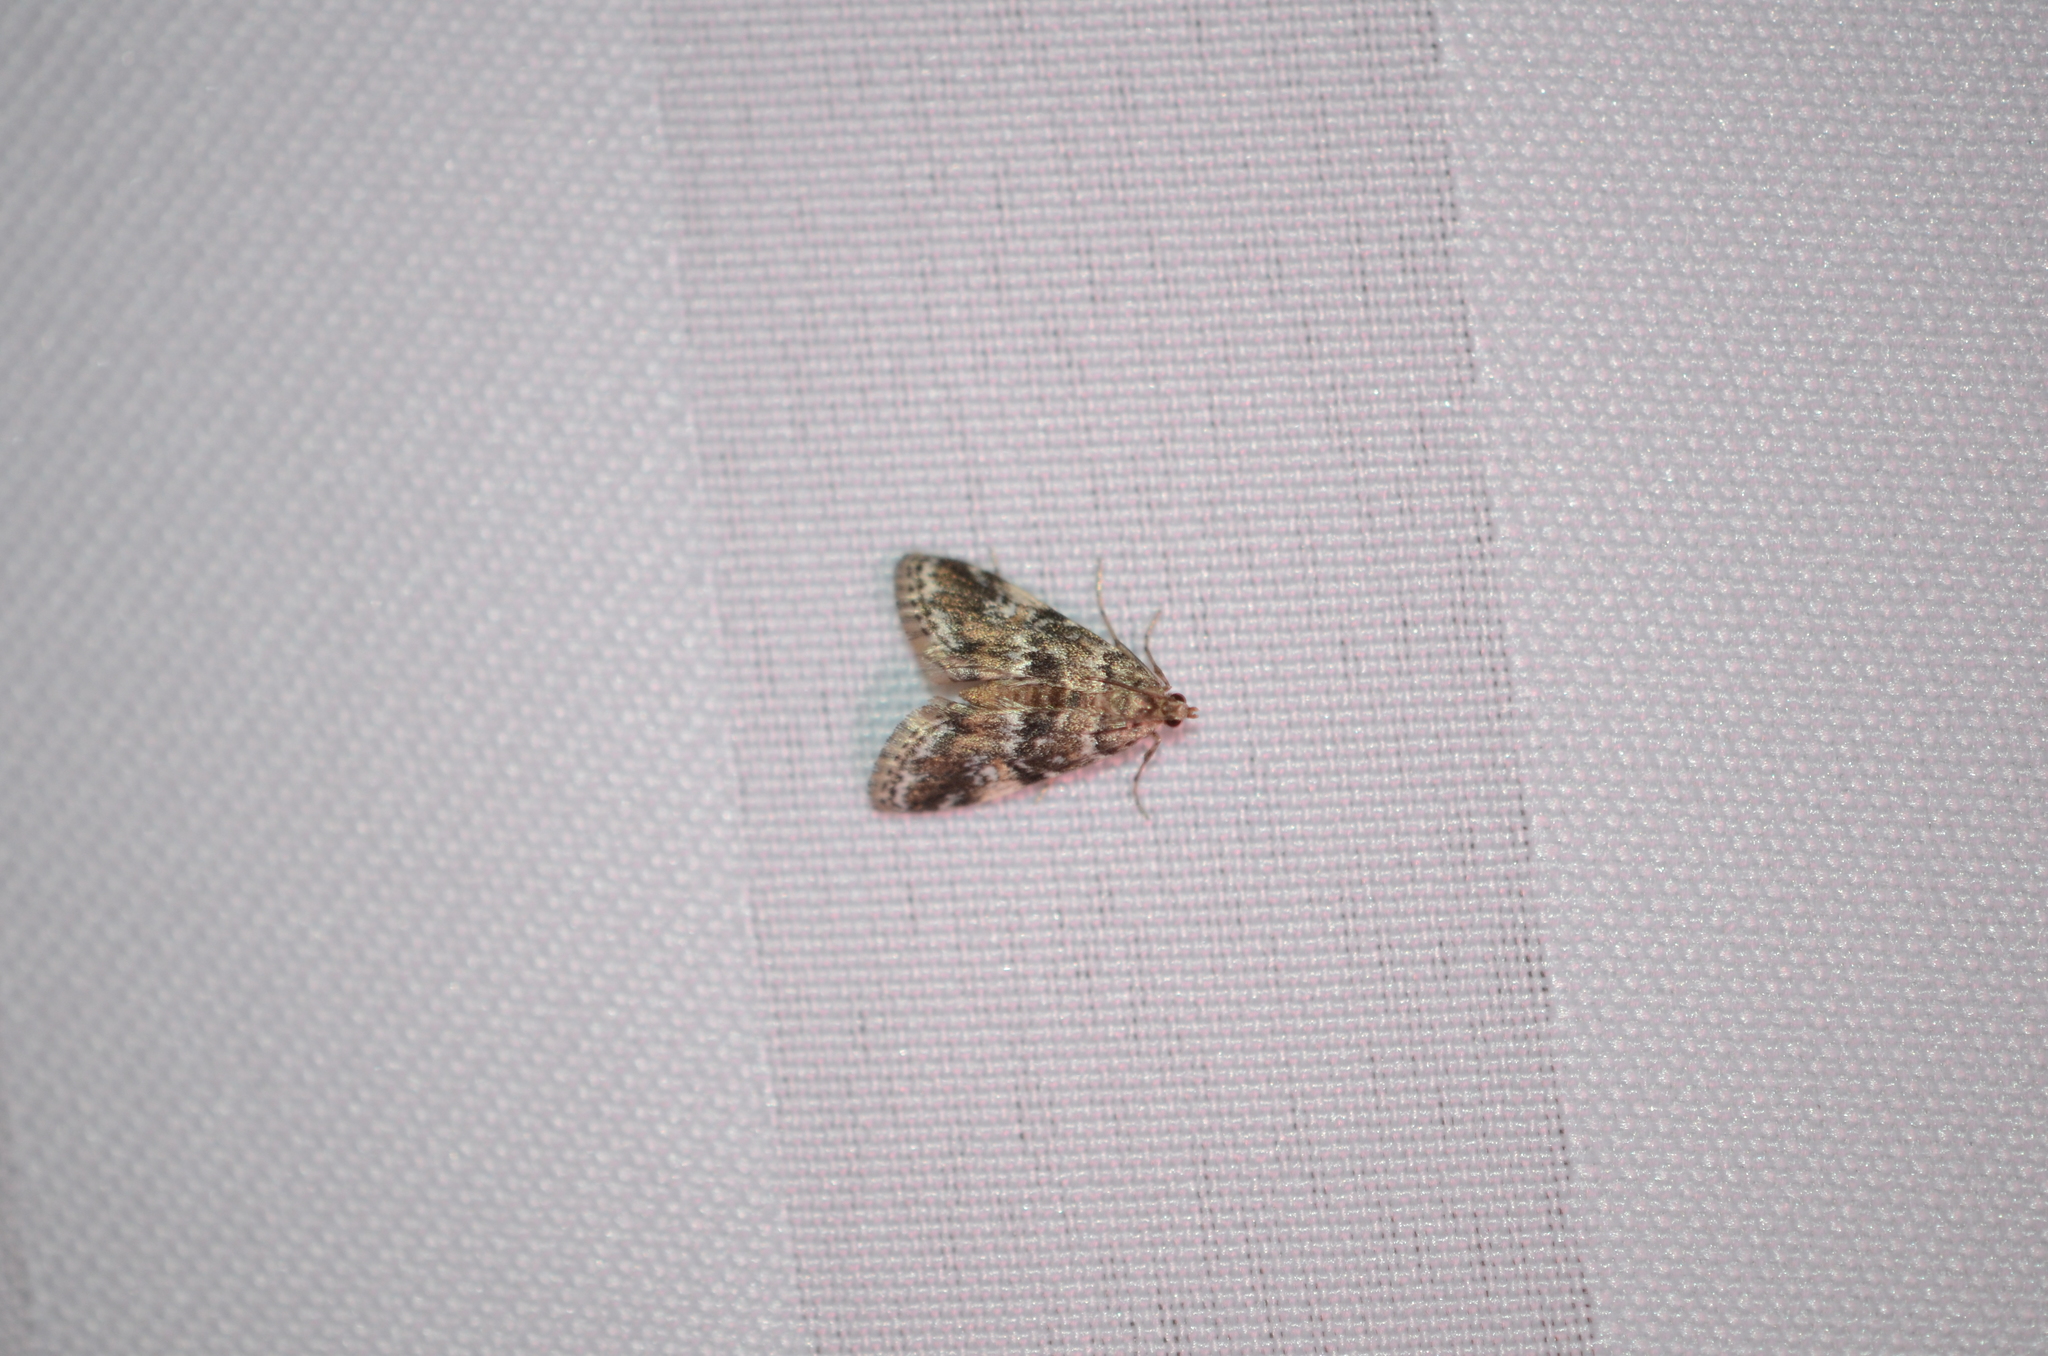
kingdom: Animalia
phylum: Arthropoda
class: Insecta
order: Lepidoptera
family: Crambidae
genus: Elophila
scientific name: Elophila obliteralis
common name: Waterlily leafcutter moth
